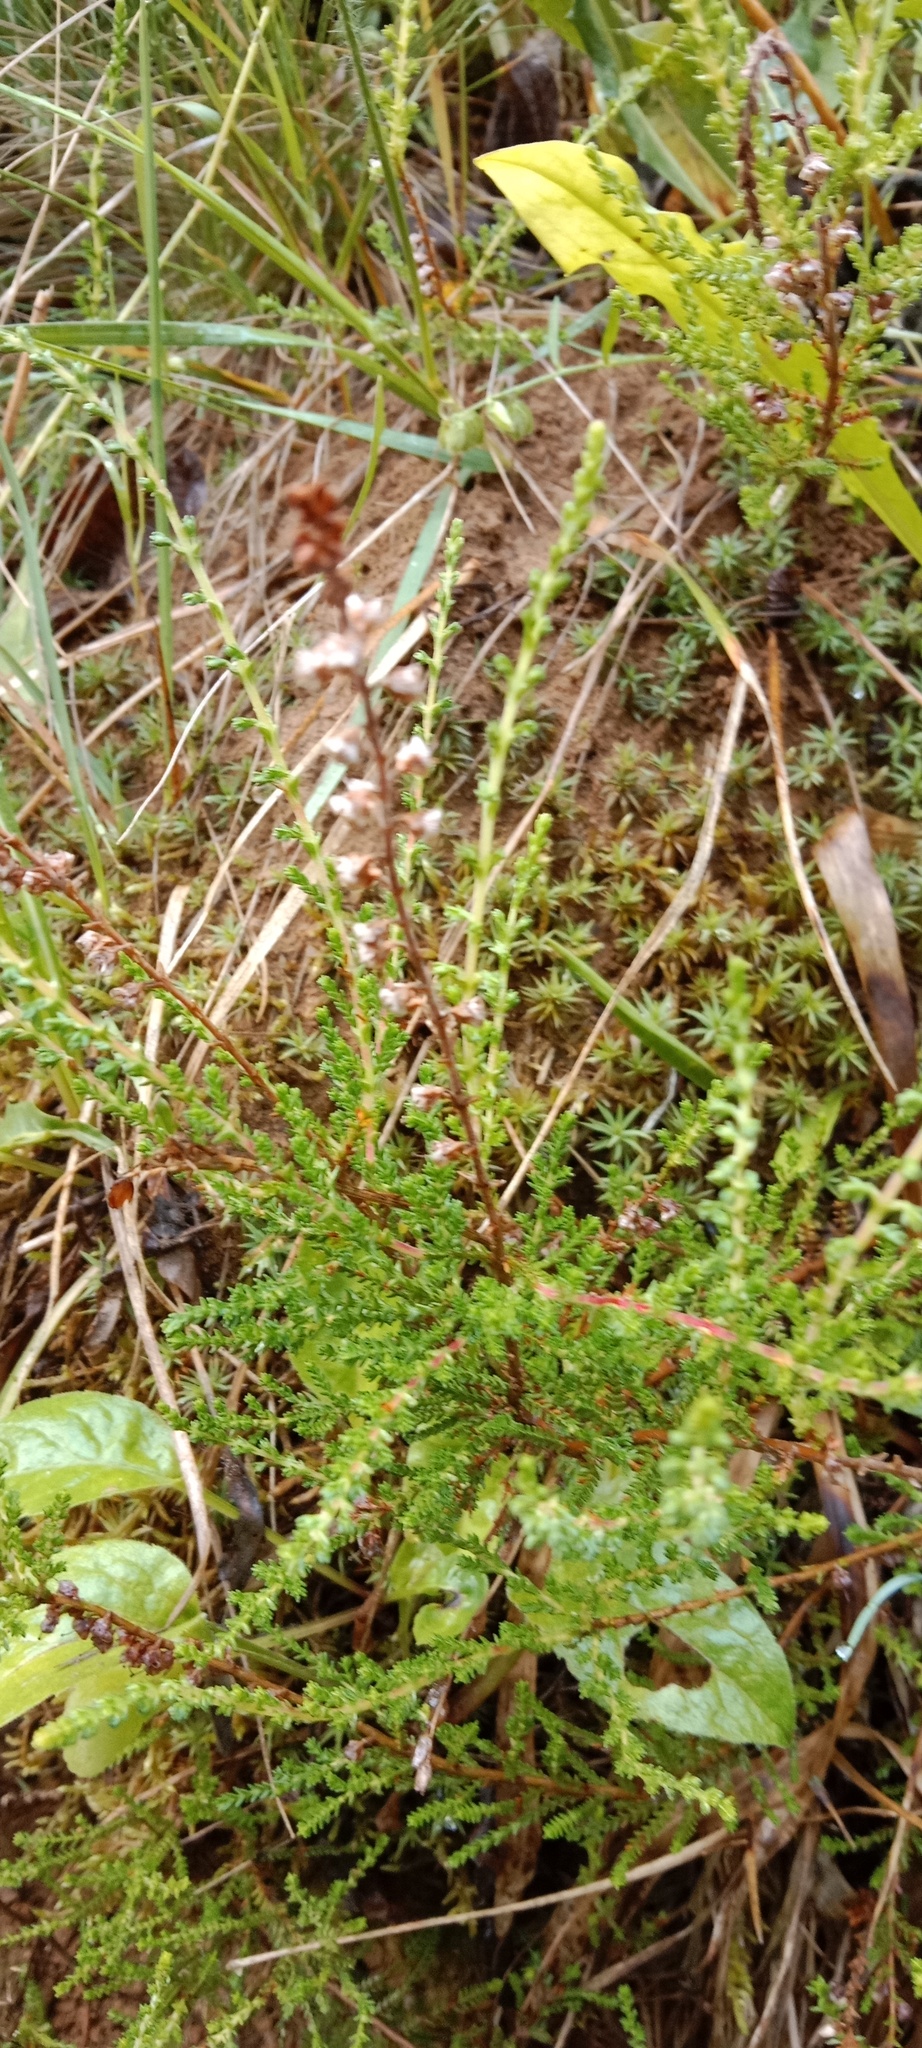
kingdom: Plantae
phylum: Tracheophyta
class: Magnoliopsida
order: Ericales
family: Ericaceae
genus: Calluna
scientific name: Calluna vulgaris
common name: Heather
